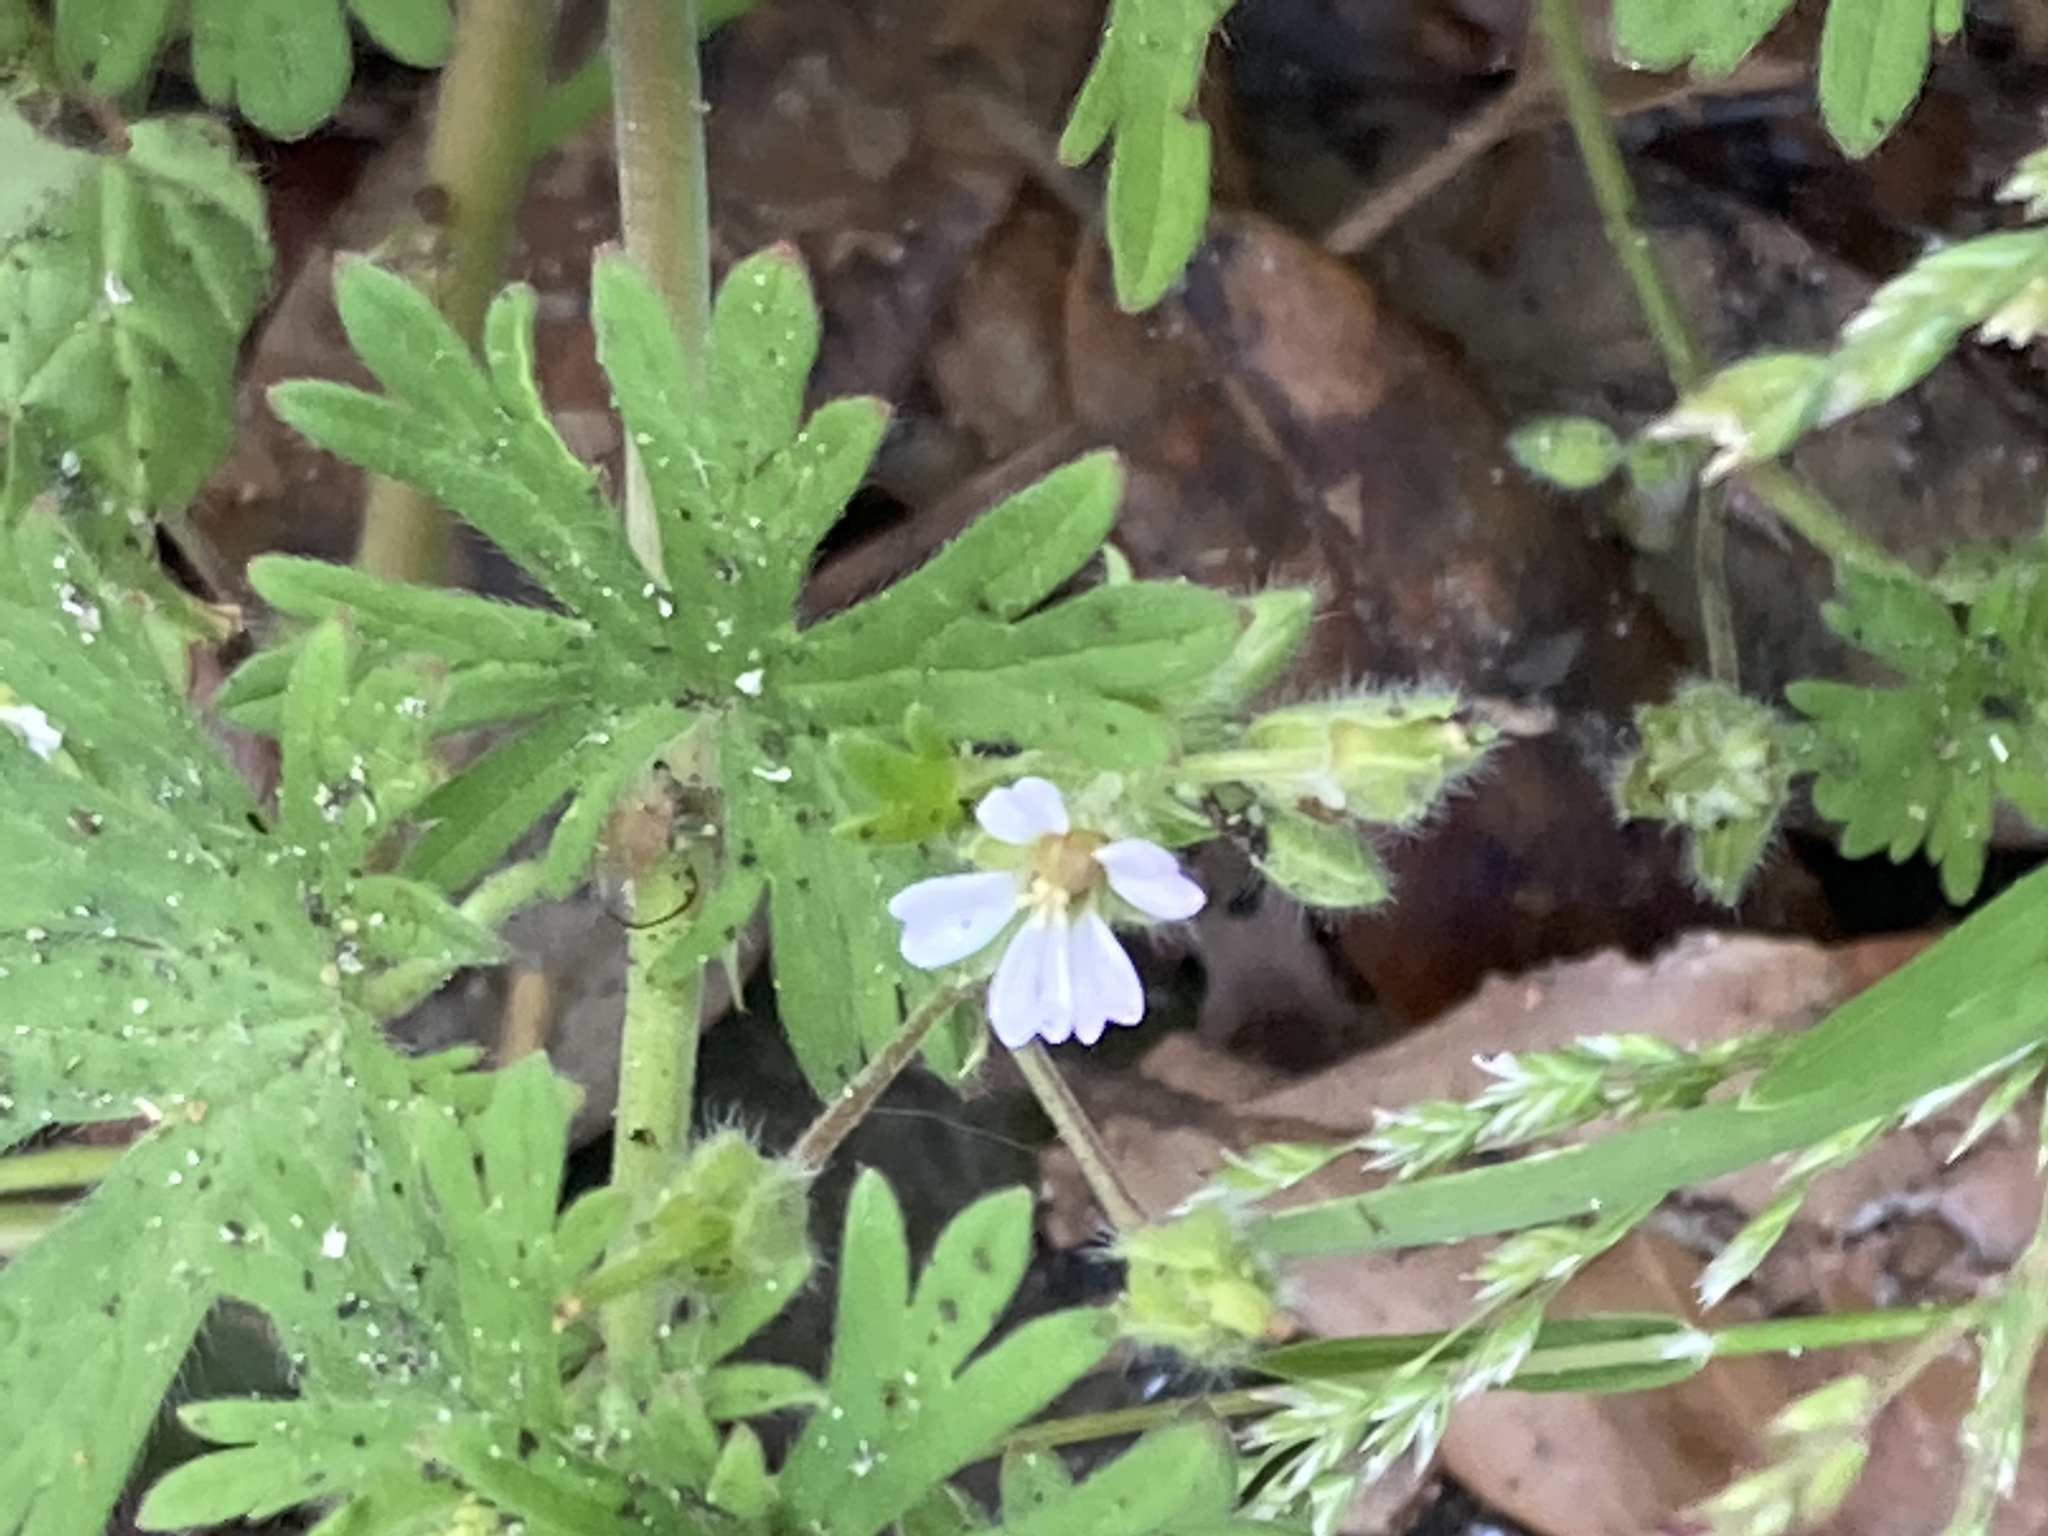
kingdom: Plantae
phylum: Tracheophyta
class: Magnoliopsida
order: Geraniales
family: Geraniaceae
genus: Geranium
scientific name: Geranium pusillum
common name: Small geranium
